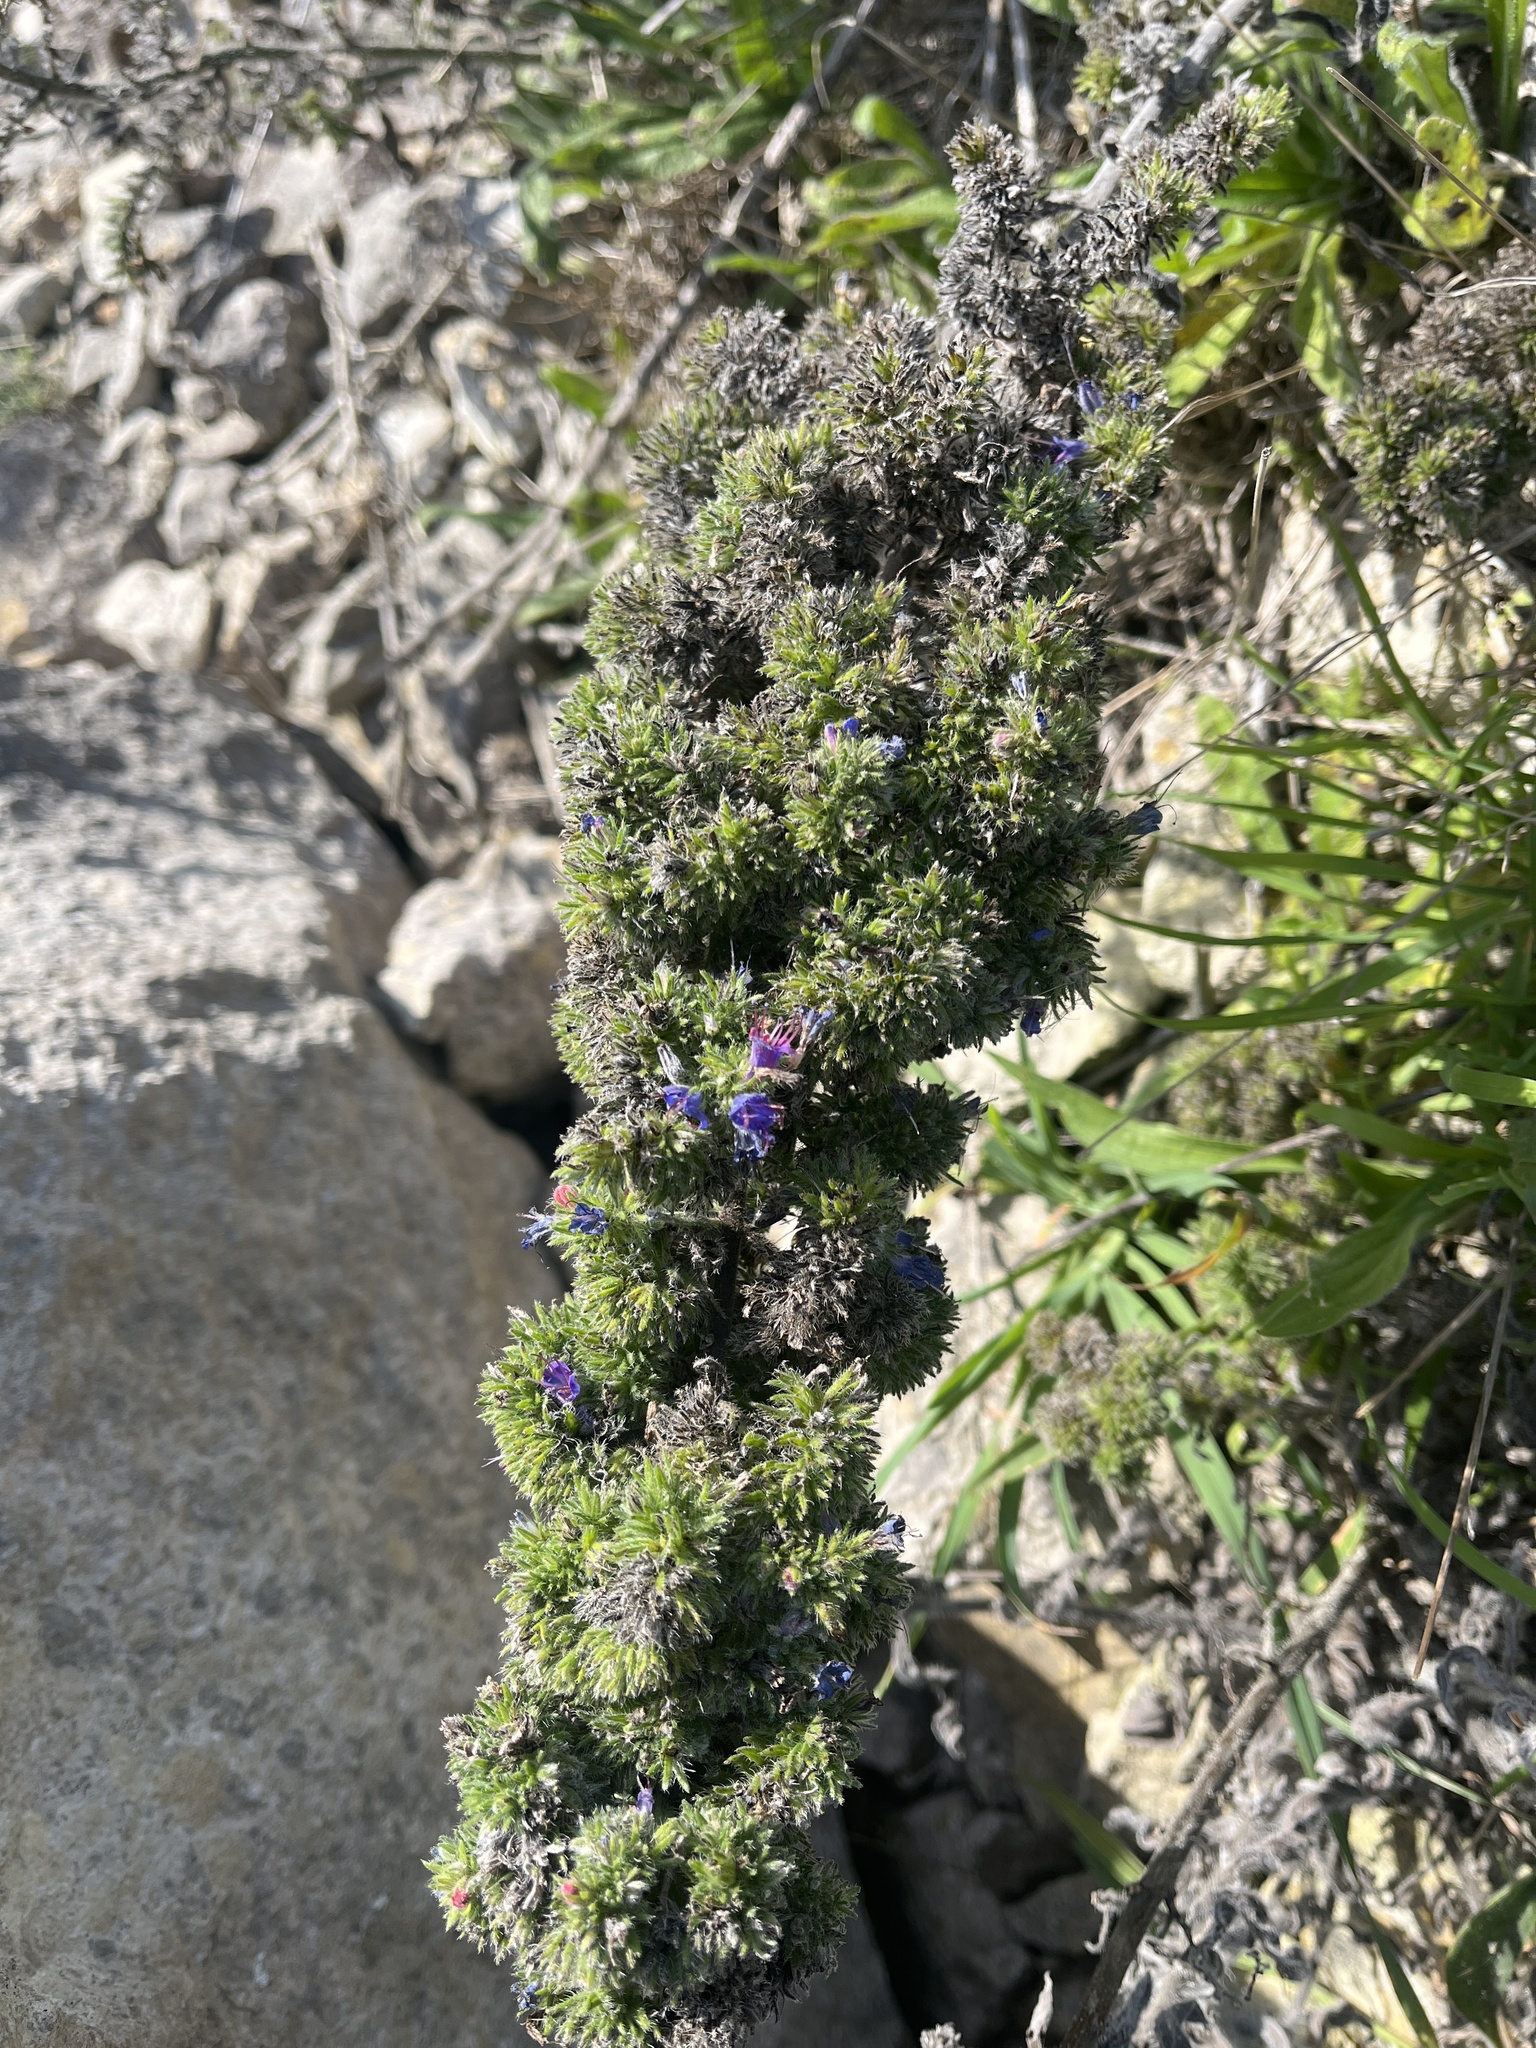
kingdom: Plantae
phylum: Tracheophyta
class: Magnoliopsida
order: Boraginales
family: Boraginaceae
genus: Echium
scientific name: Echium vulgare
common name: Common viper's bugloss
